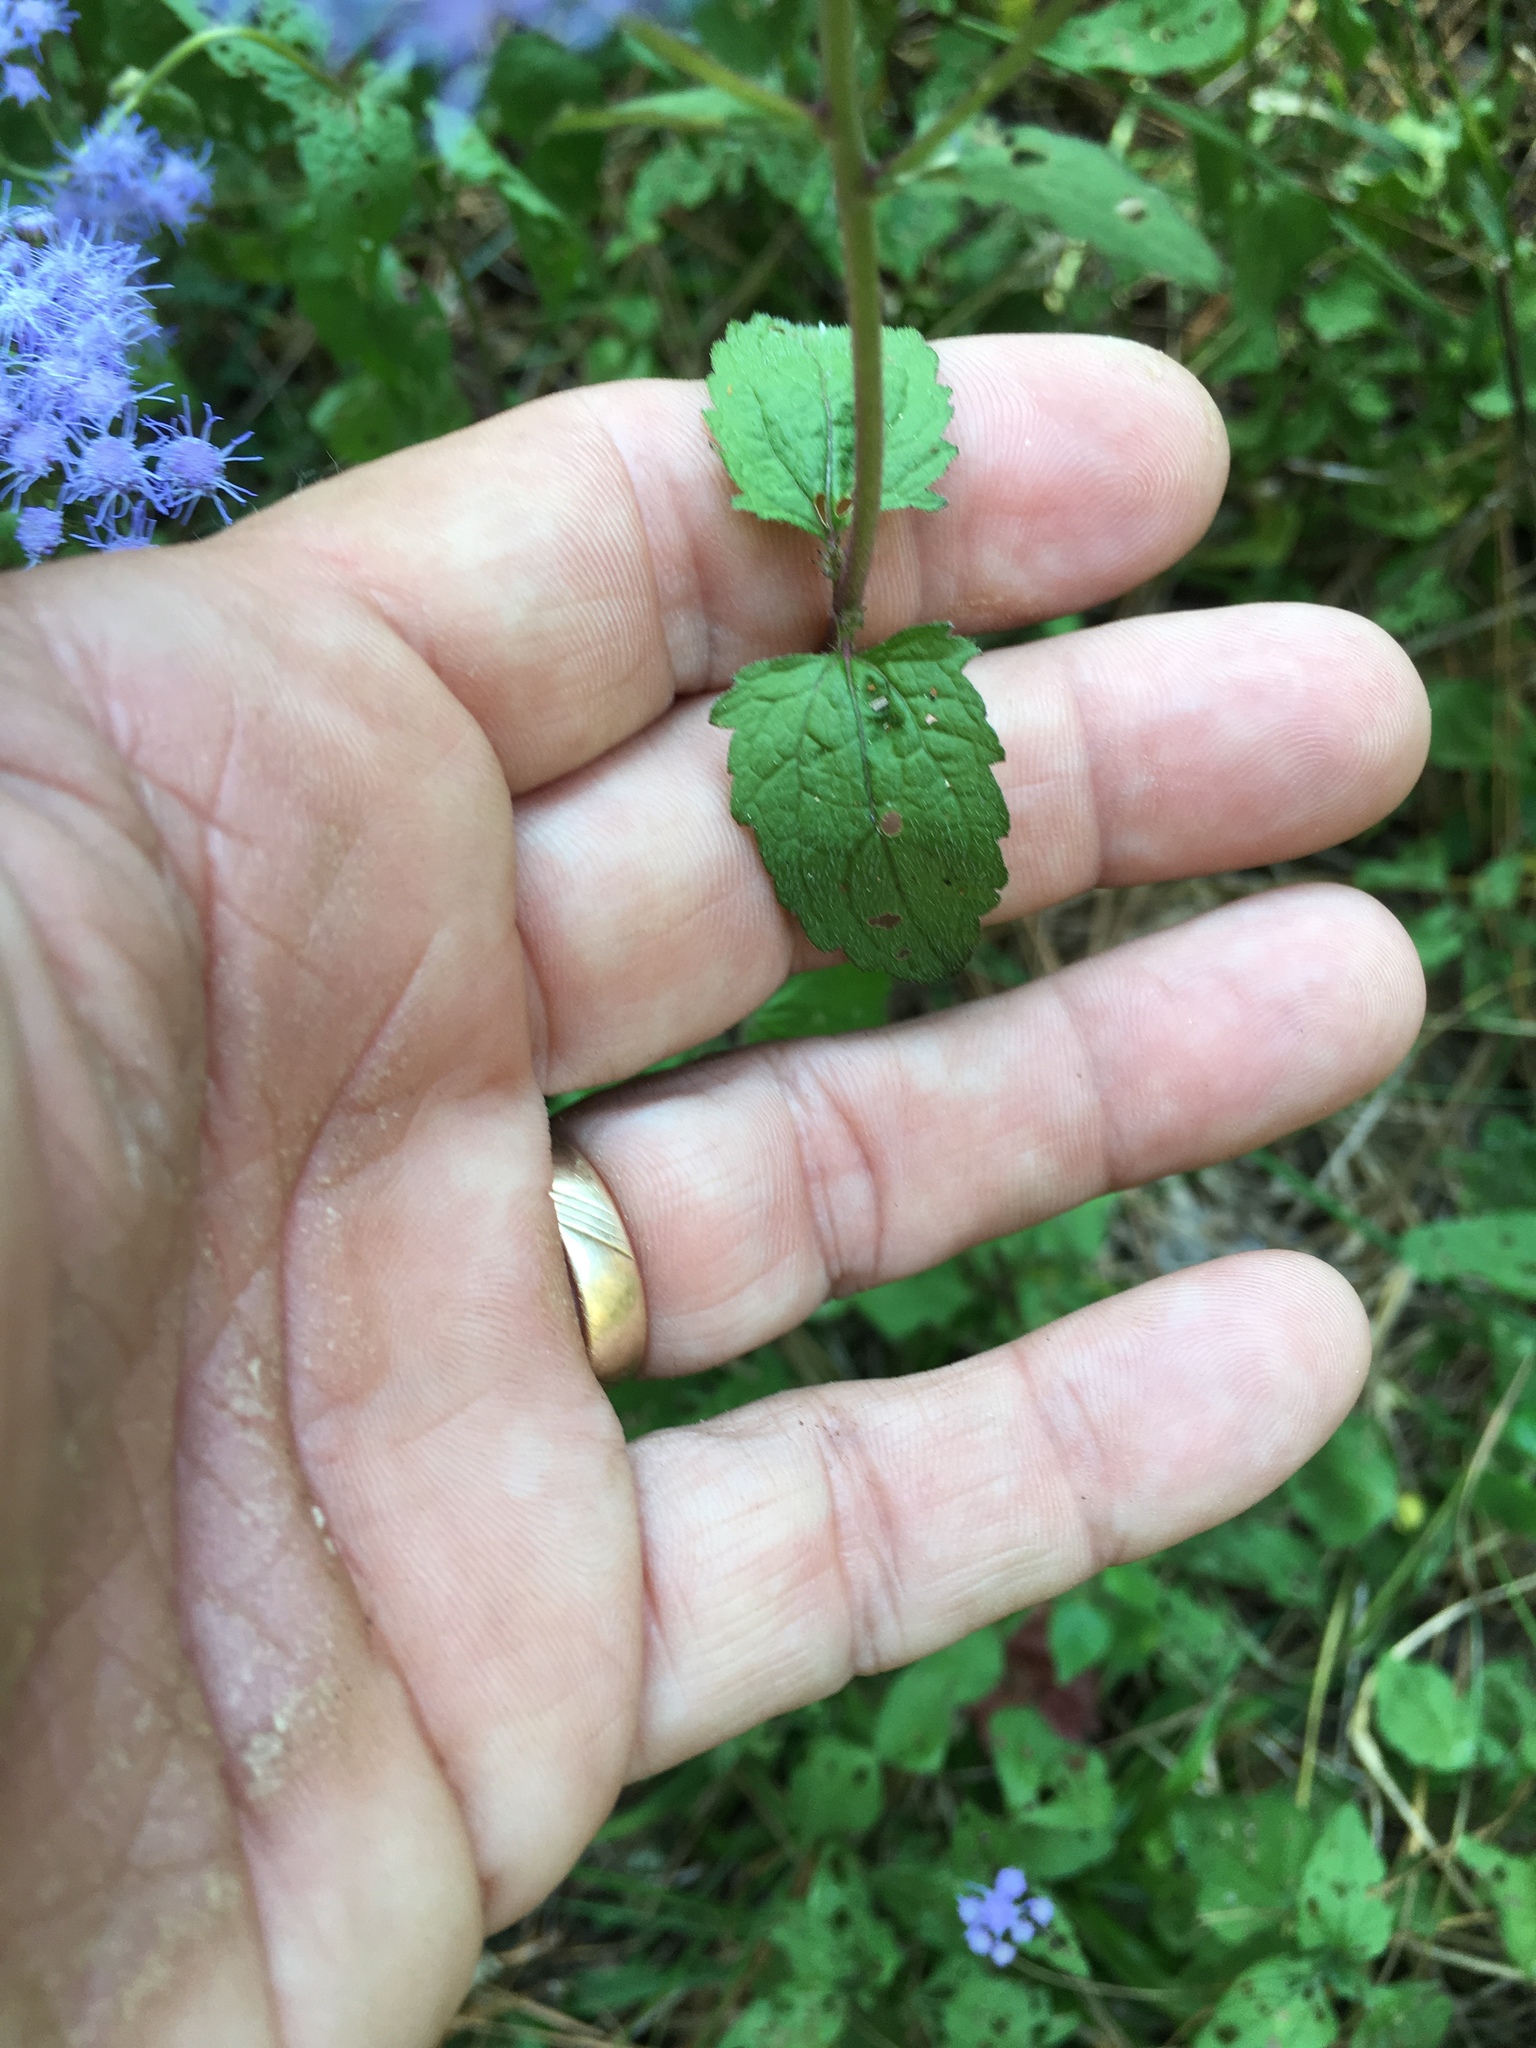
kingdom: Plantae
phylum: Tracheophyta
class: Magnoliopsida
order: Asterales
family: Asteraceae
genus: Conoclinium
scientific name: Conoclinium coelestinum
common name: Blue mistflower
